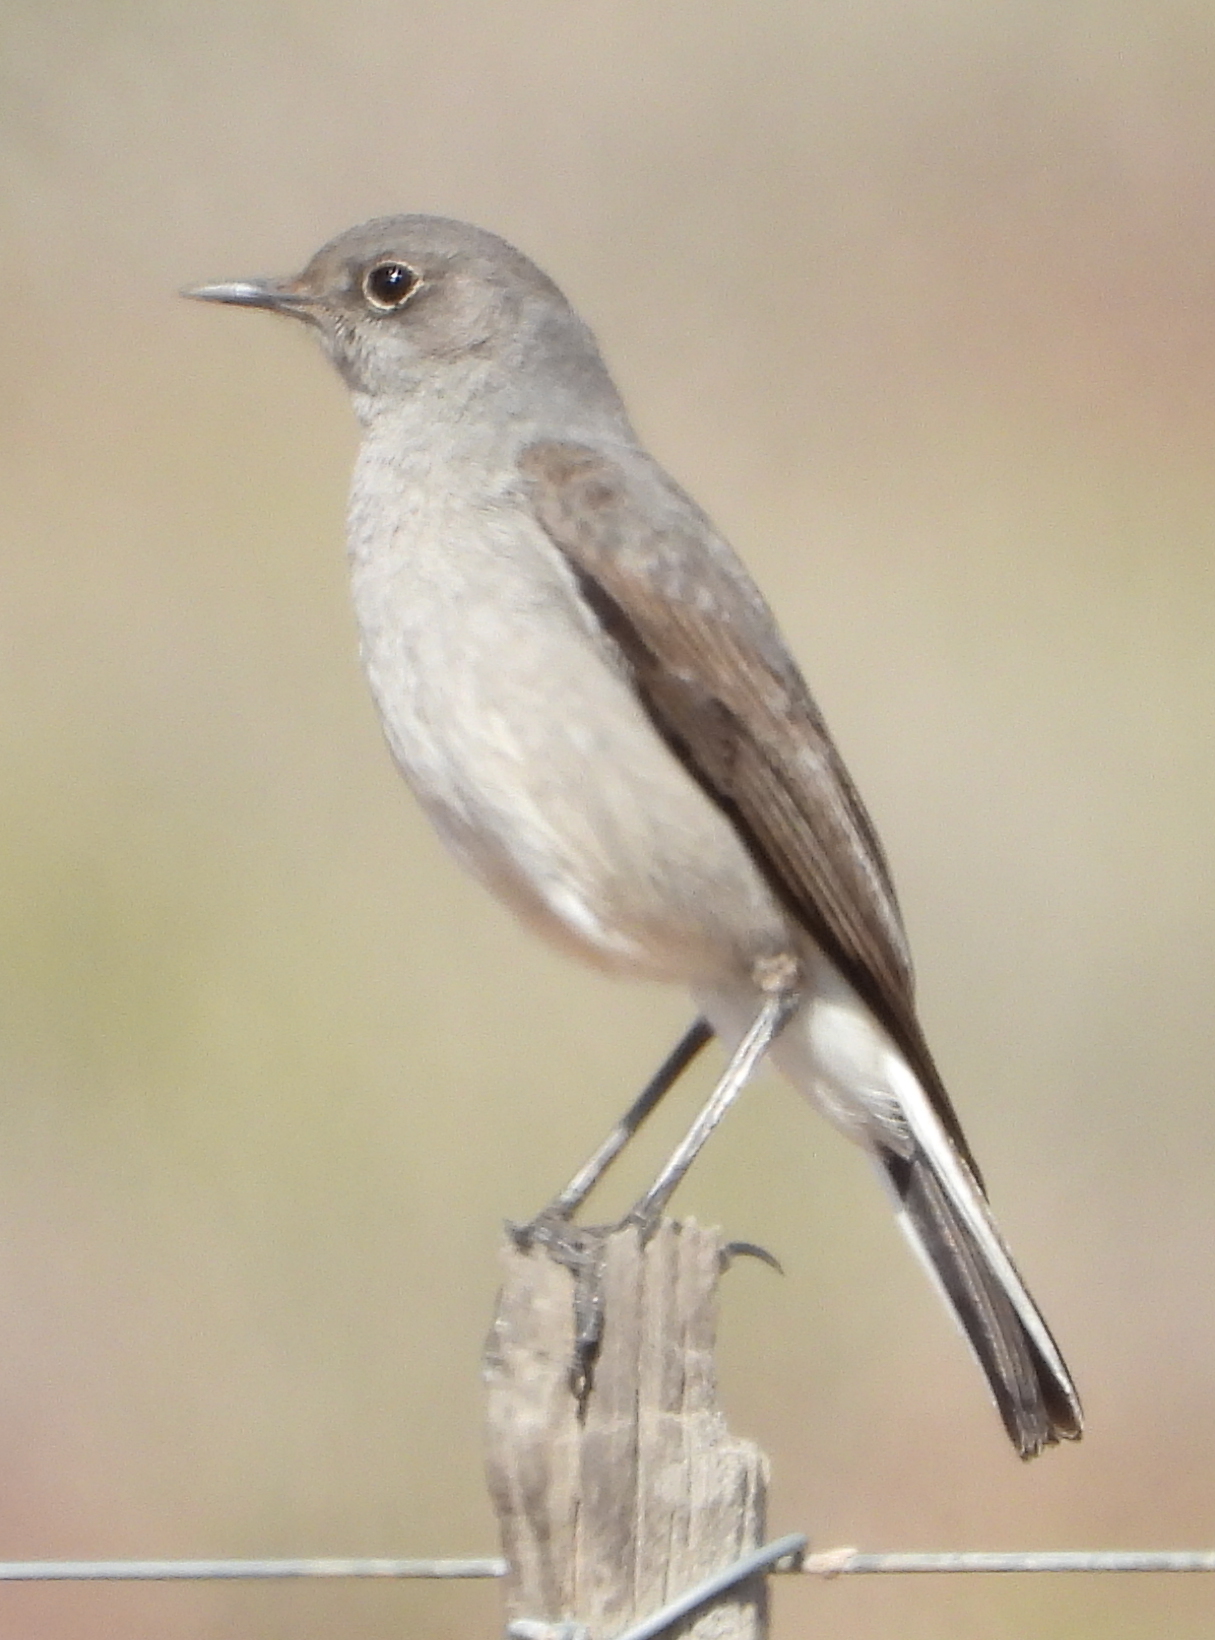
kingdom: Animalia
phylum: Chordata
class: Aves
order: Passeriformes
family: Muscicapidae
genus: Oenanthe
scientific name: Oenanthe familiaris
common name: Familiar chat
